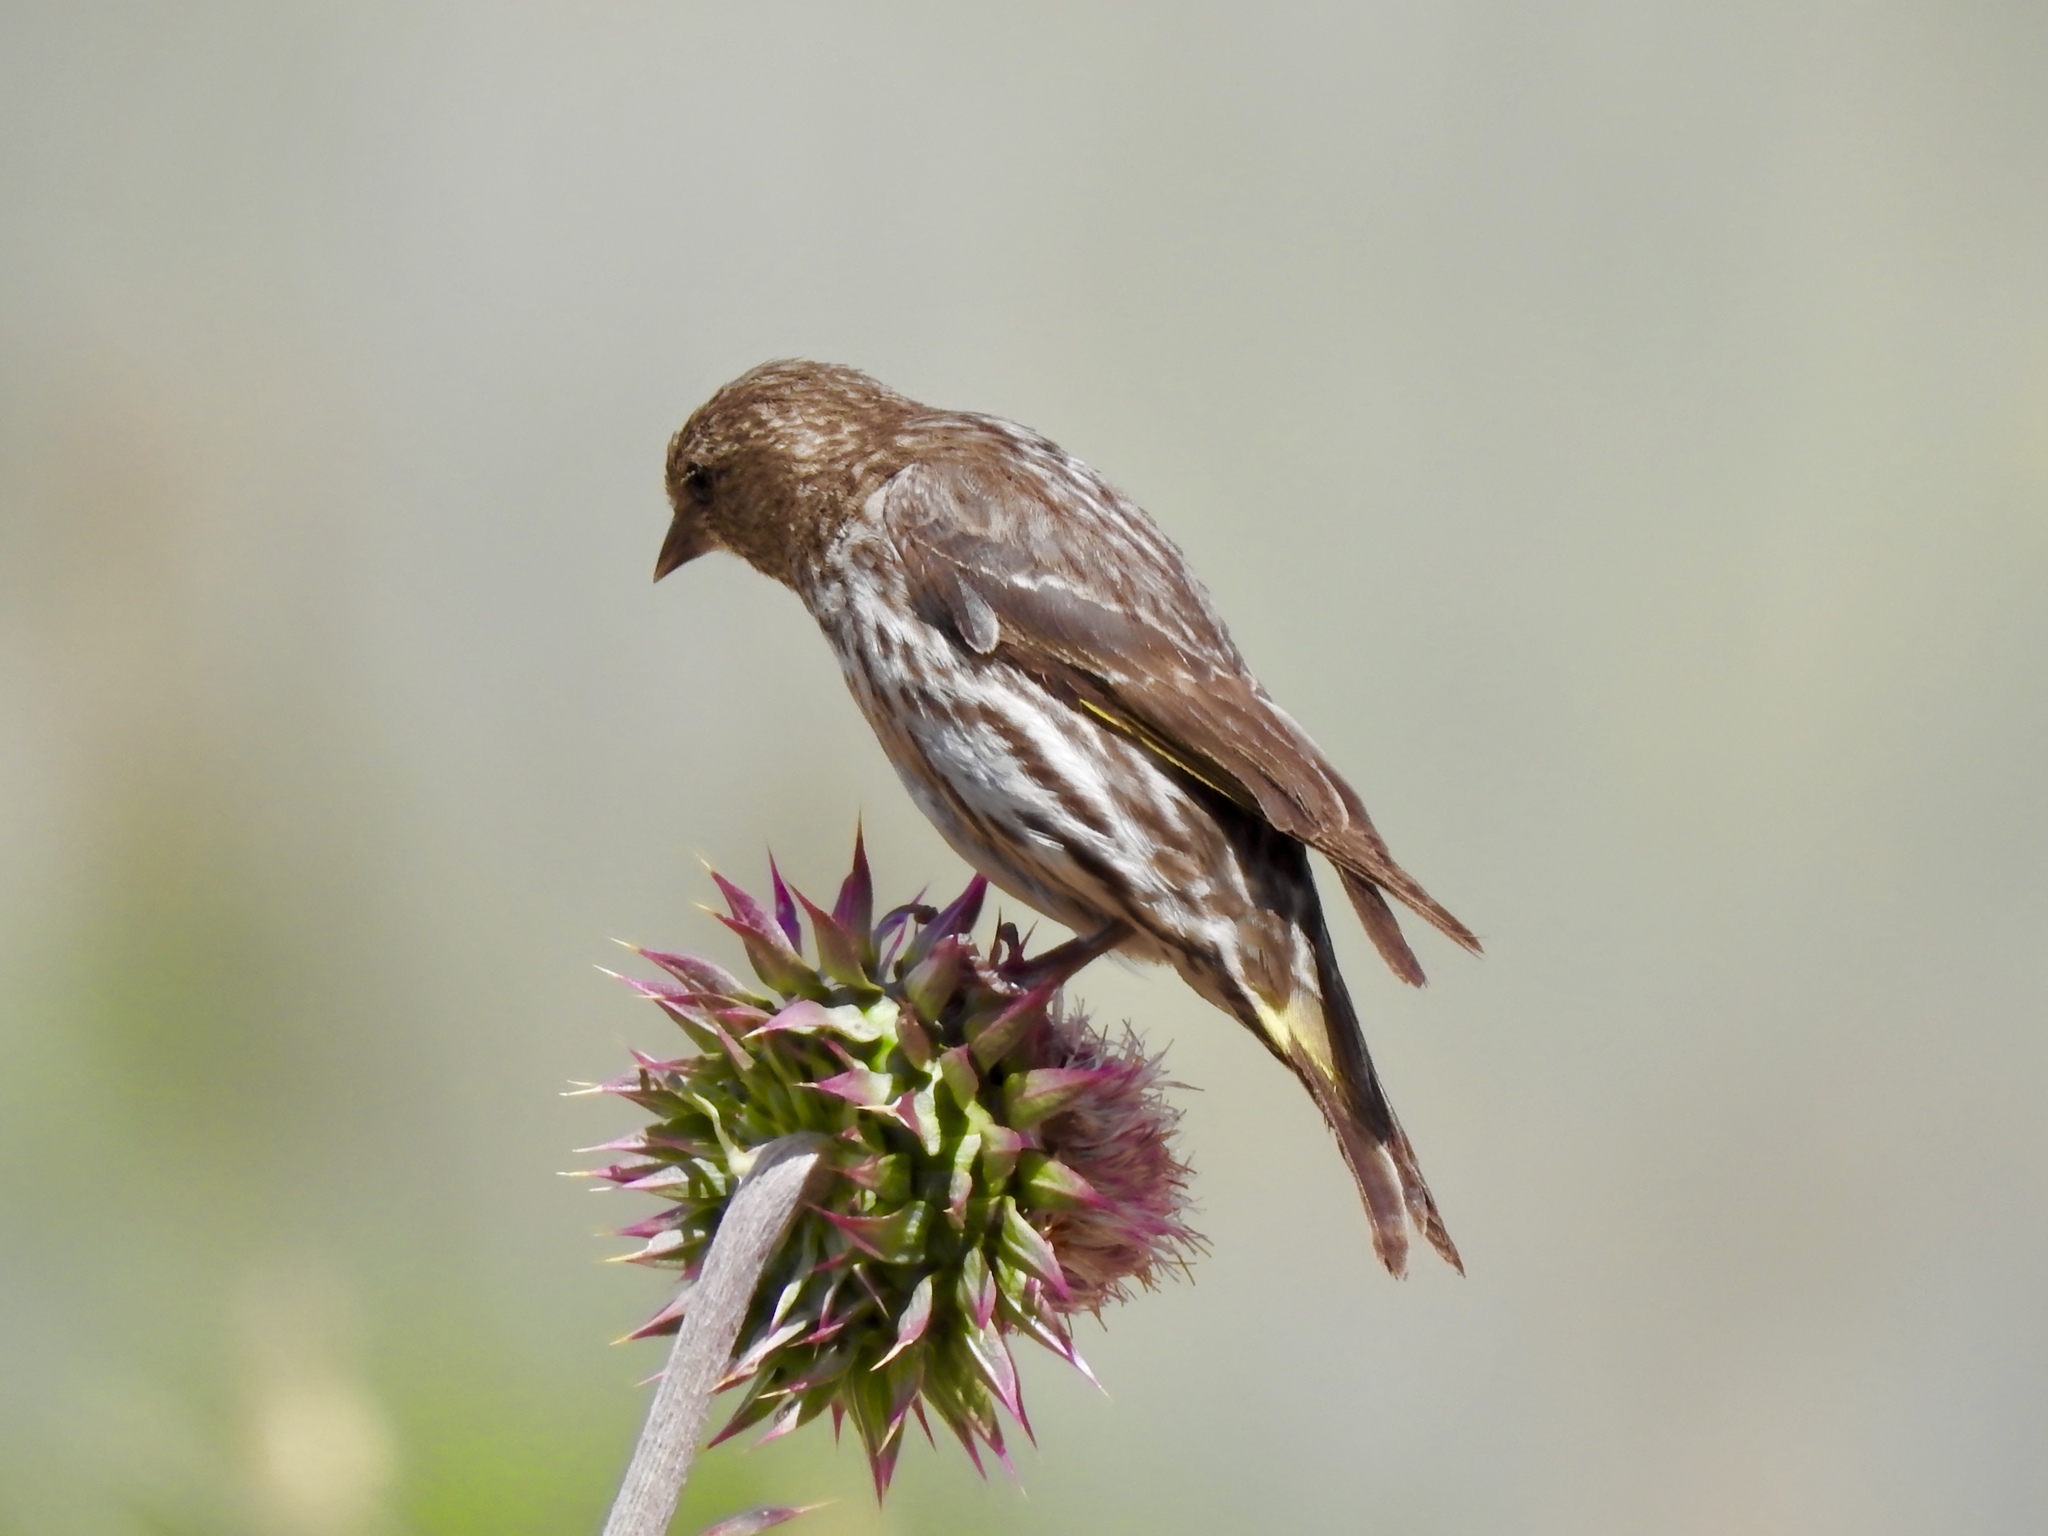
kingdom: Animalia
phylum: Chordata
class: Aves
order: Passeriformes
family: Fringillidae
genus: Spinus
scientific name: Spinus pinus
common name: Pine siskin
